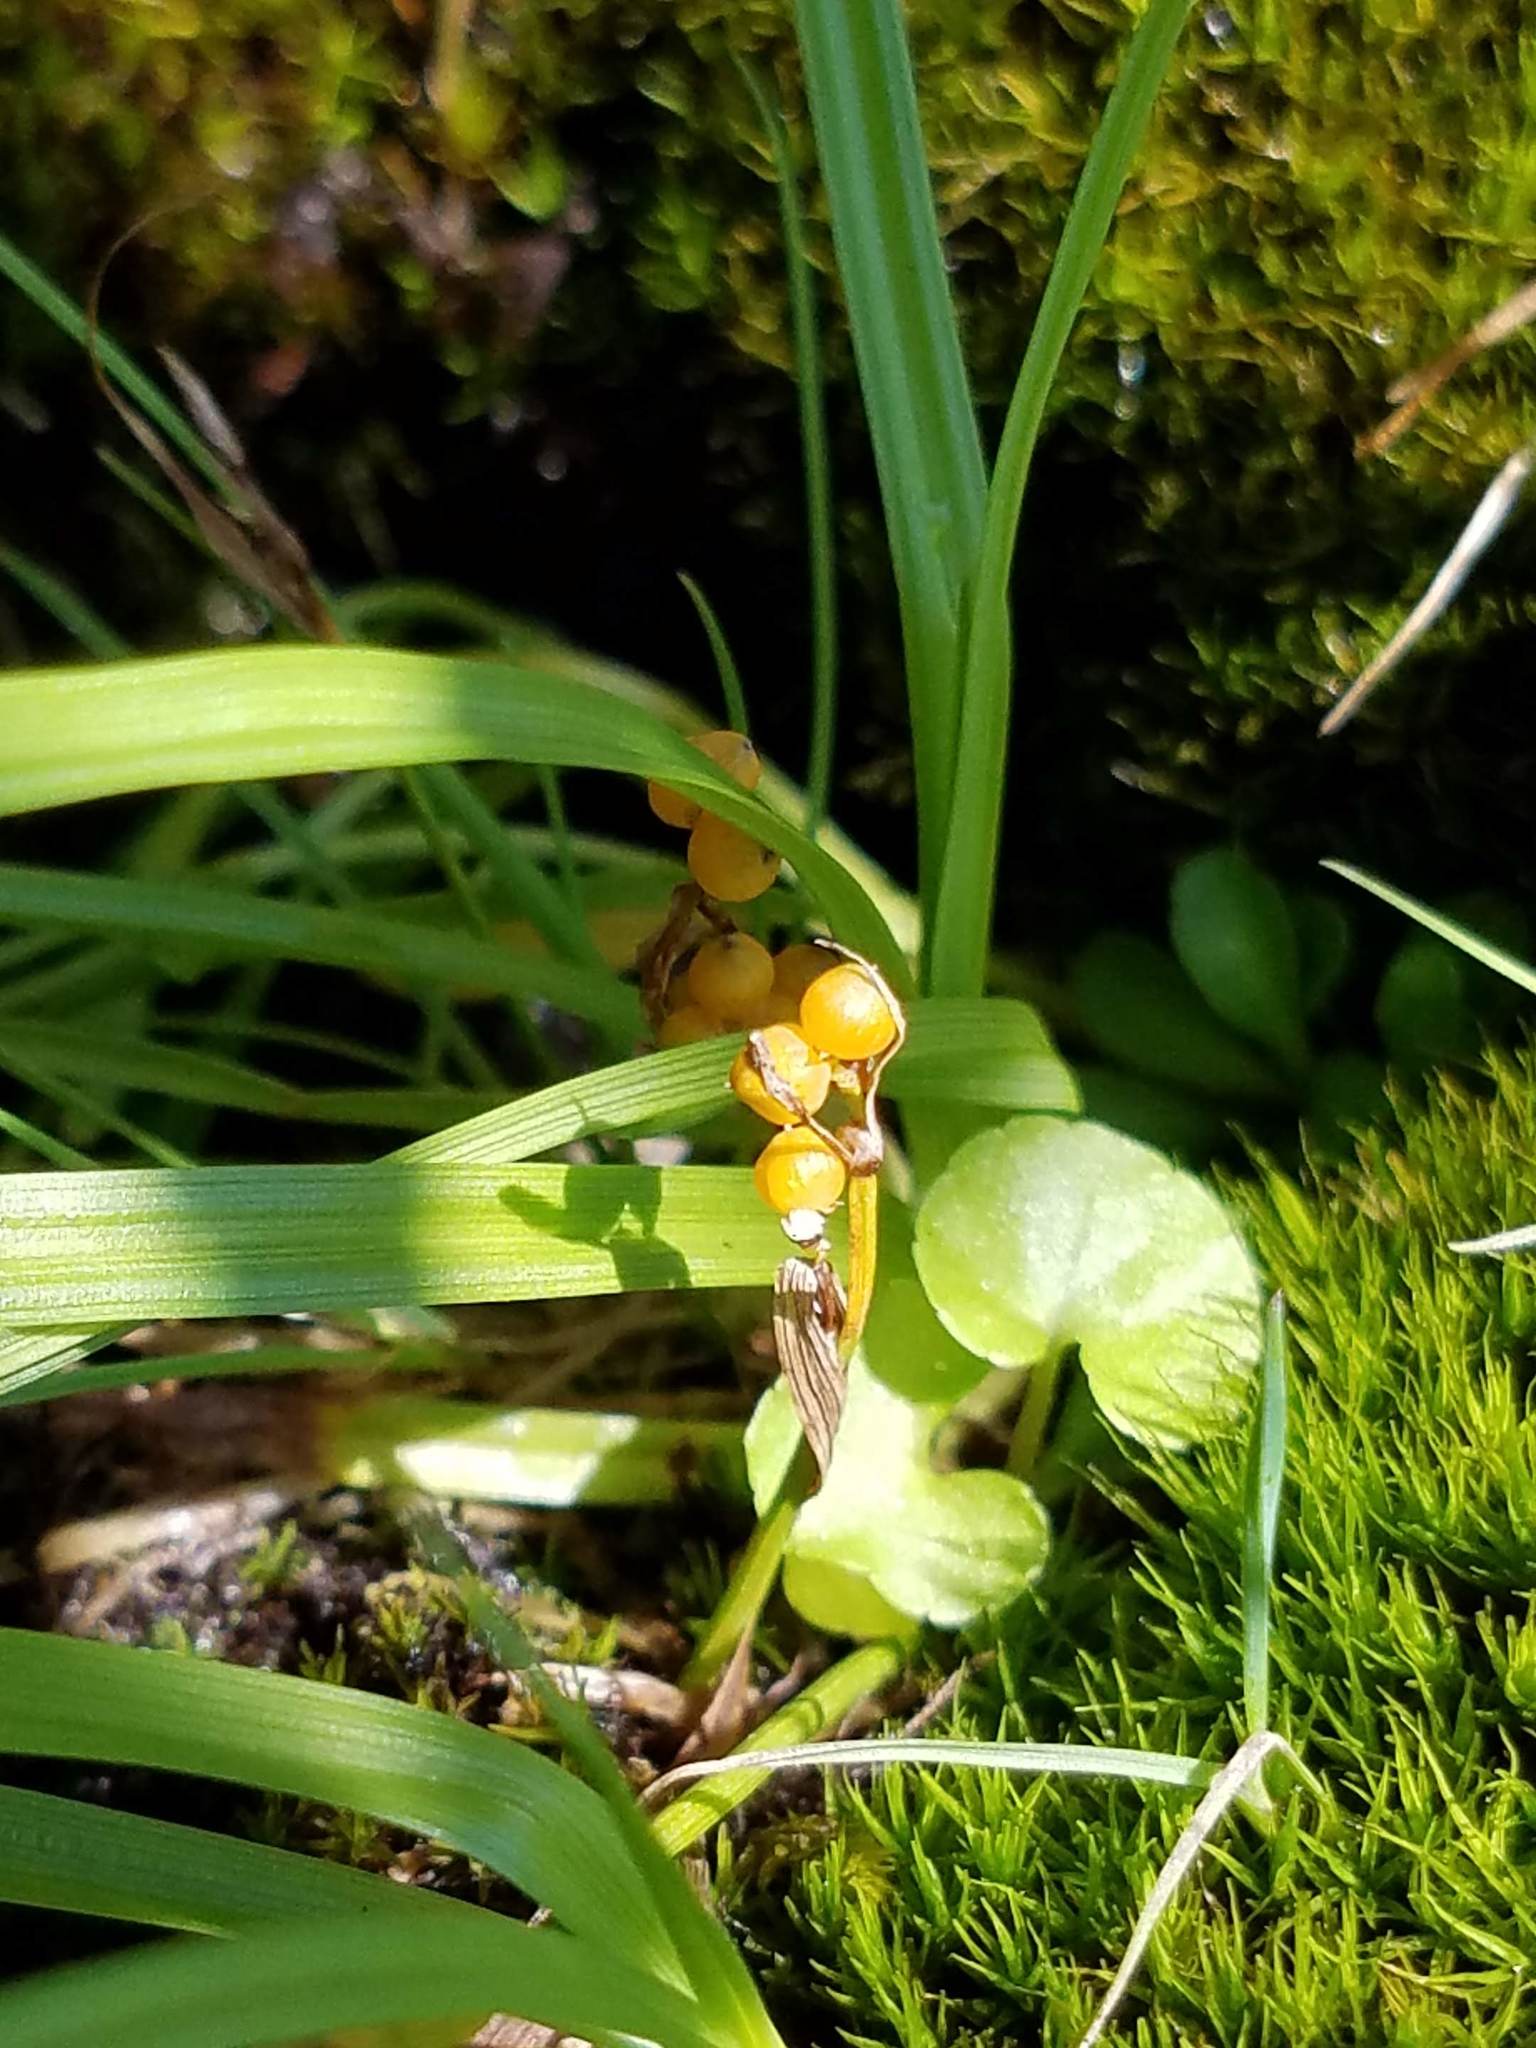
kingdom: Plantae
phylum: Tracheophyta
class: Liliopsida
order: Poales
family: Cyperaceae
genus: Carex
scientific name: Carex aurea
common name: Golden sedge
